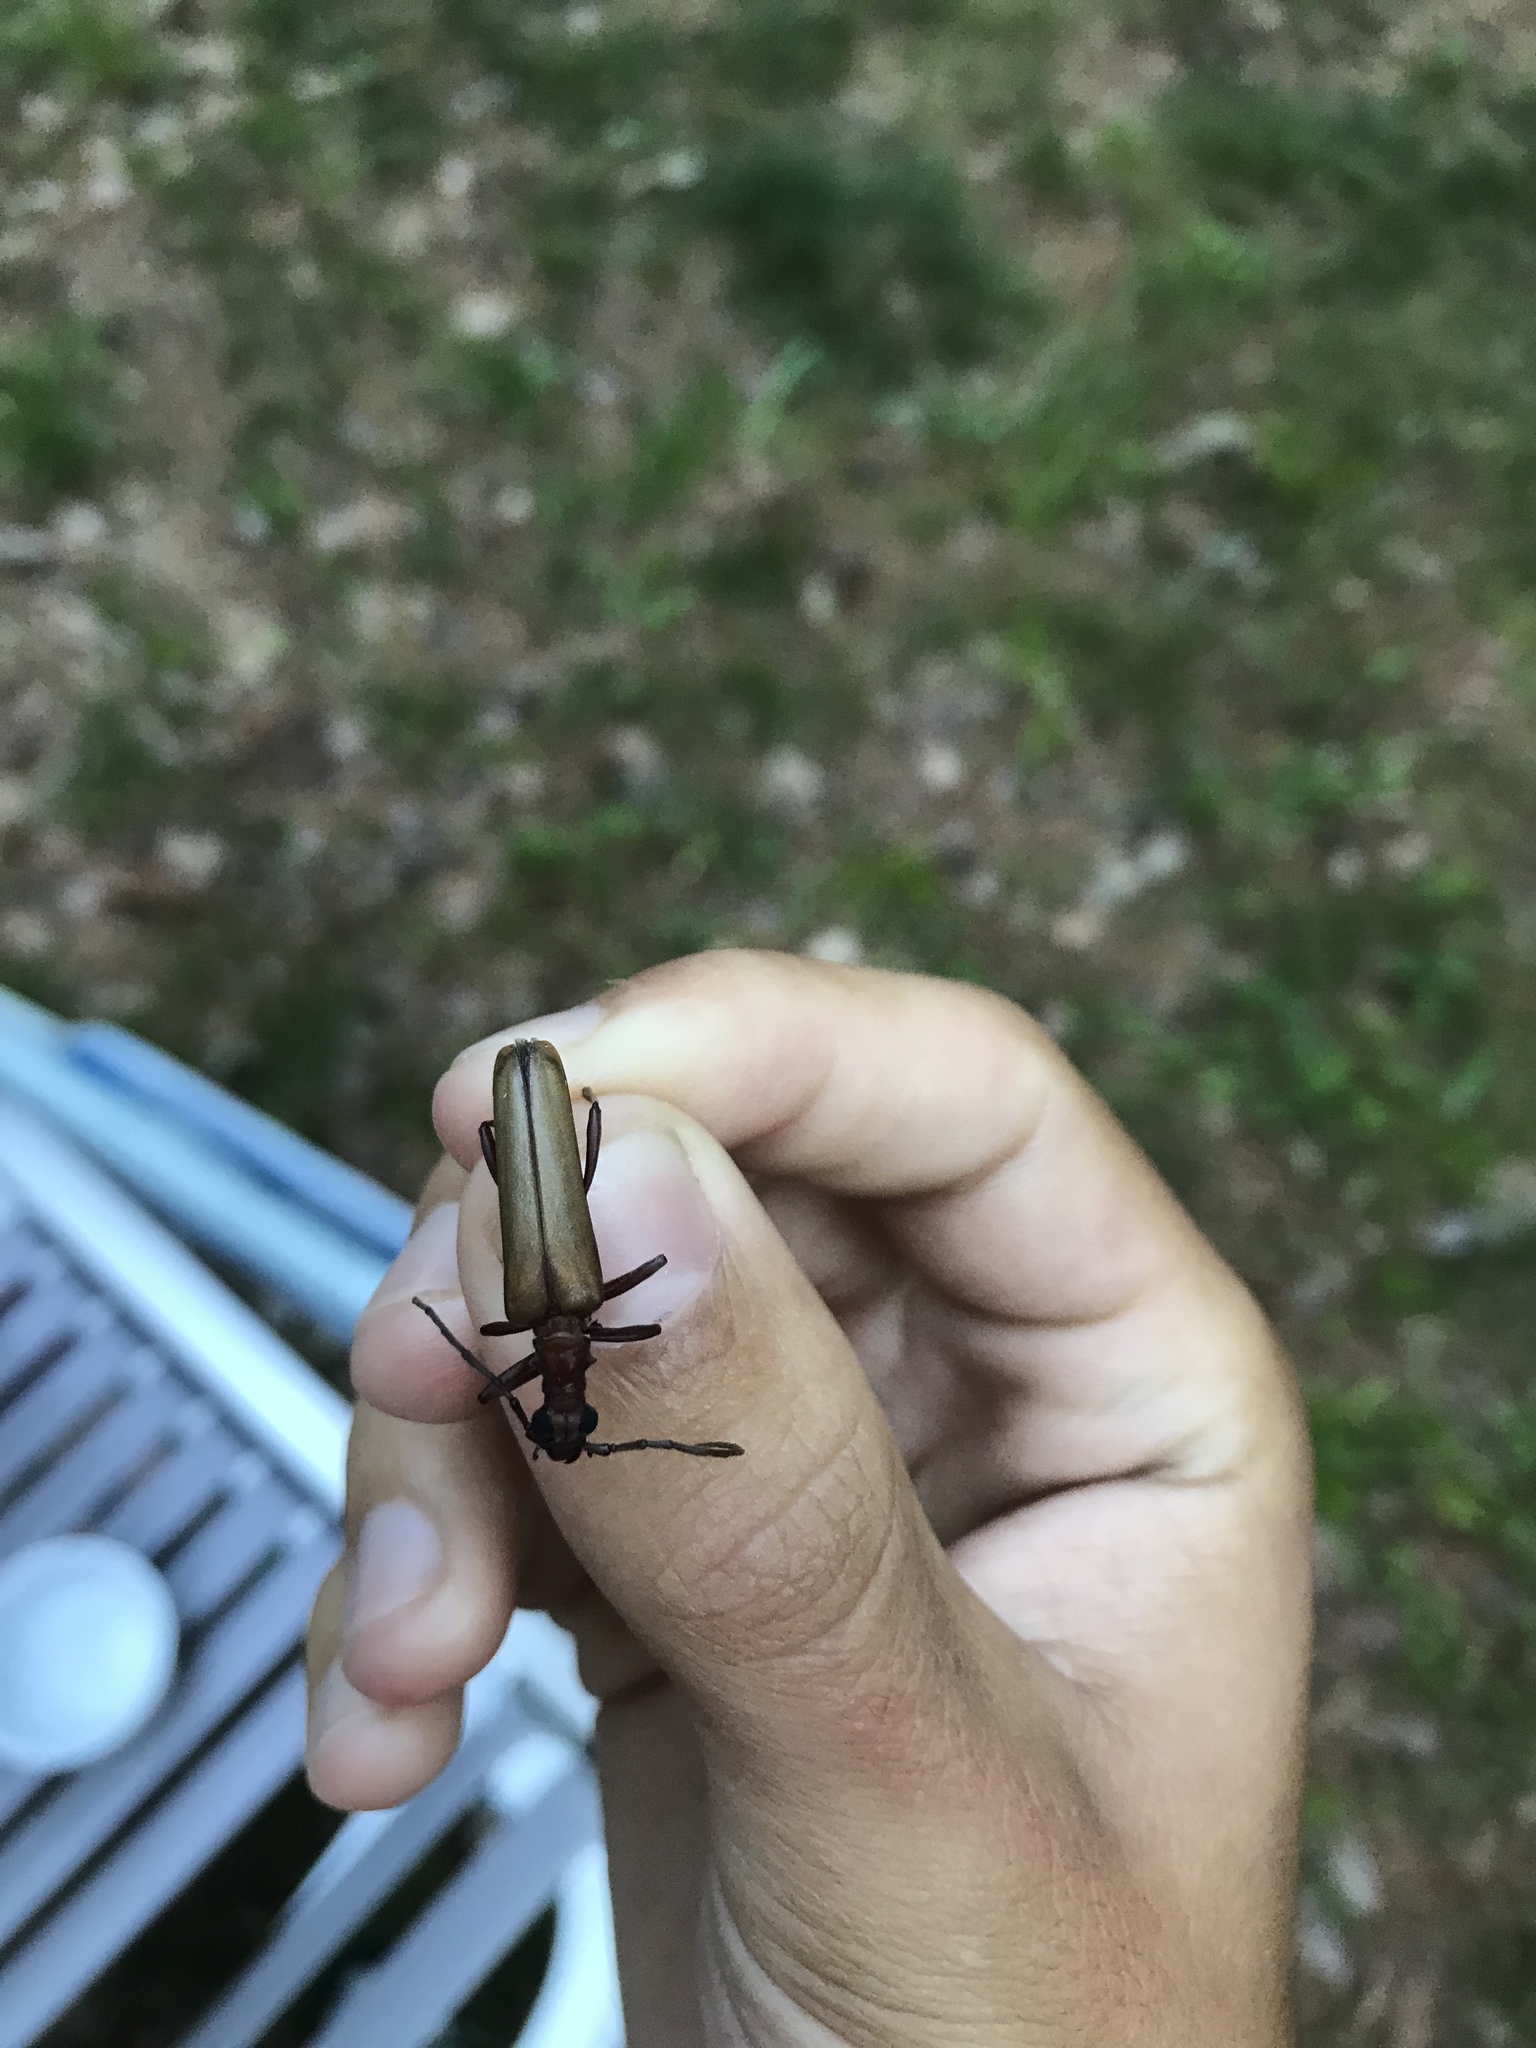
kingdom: Animalia
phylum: Arthropoda
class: Insecta
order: Coleoptera
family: Cerambycidae
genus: Centrodera
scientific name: Centrodera decolorata
